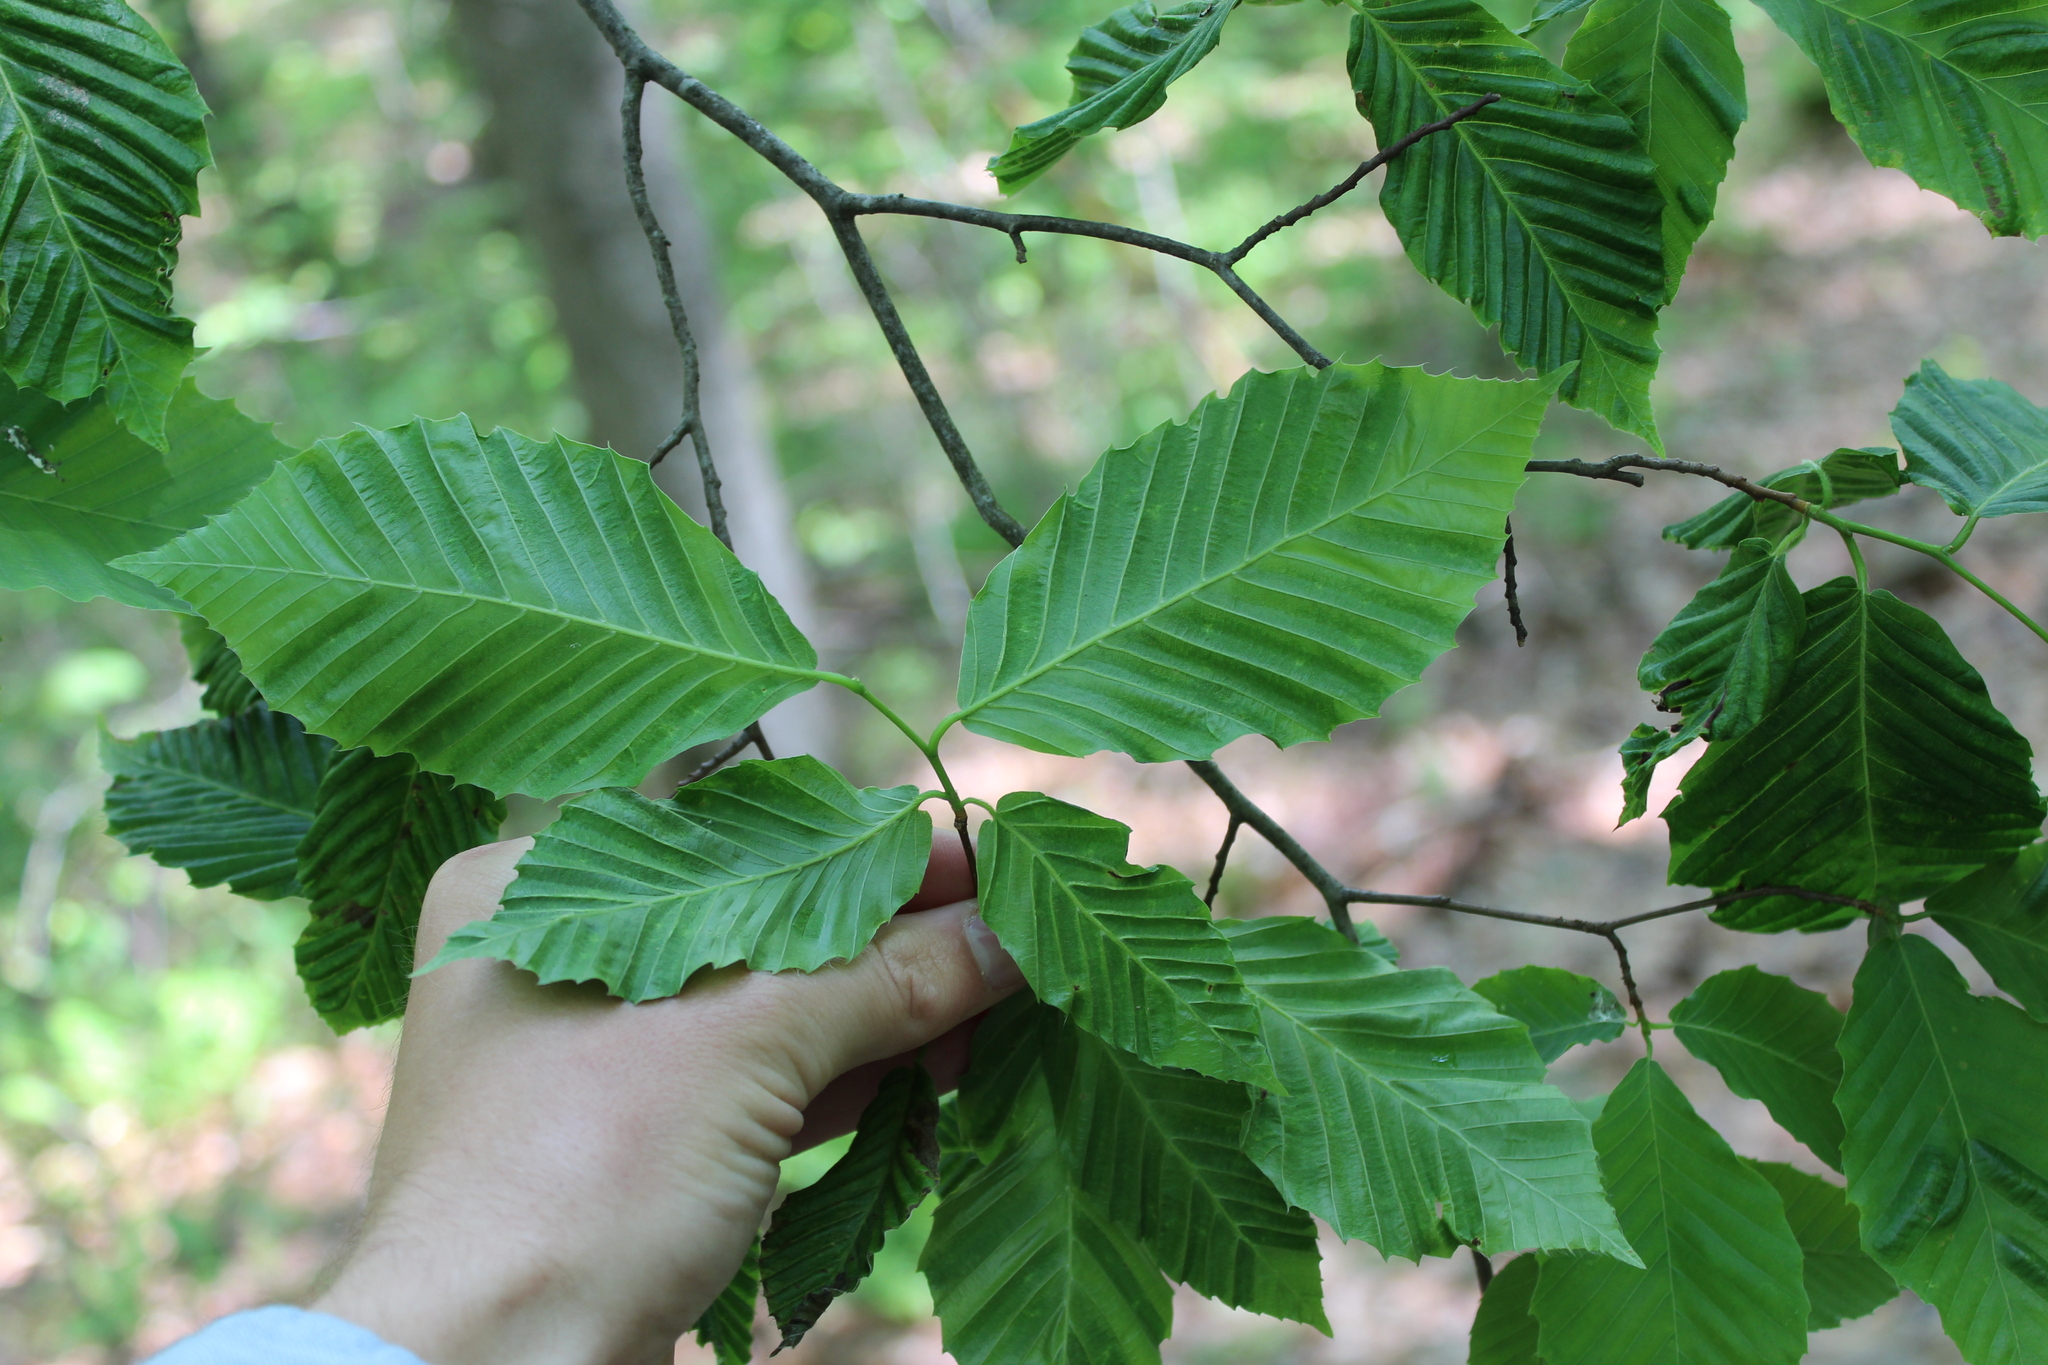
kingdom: Animalia
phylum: Nematoda
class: Chromadorea
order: Rhabditida
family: Anguinidae
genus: Litylenchus
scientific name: Litylenchus crenatae
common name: Beech leaf disease
